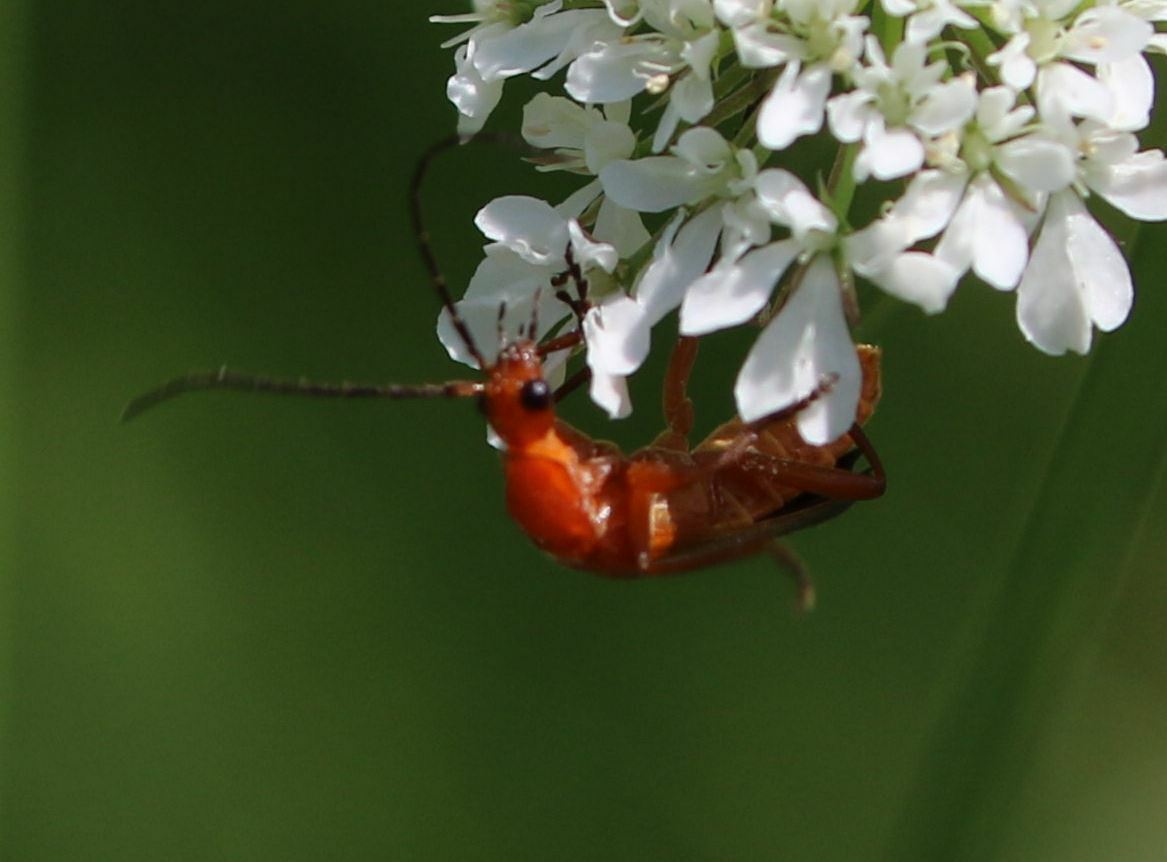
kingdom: Animalia
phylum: Arthropoda
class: Insecta
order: Coleoptera
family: Cantharidae
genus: Rhagonycha
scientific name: Rhagonycha fulva
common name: Common red soldier beetle
